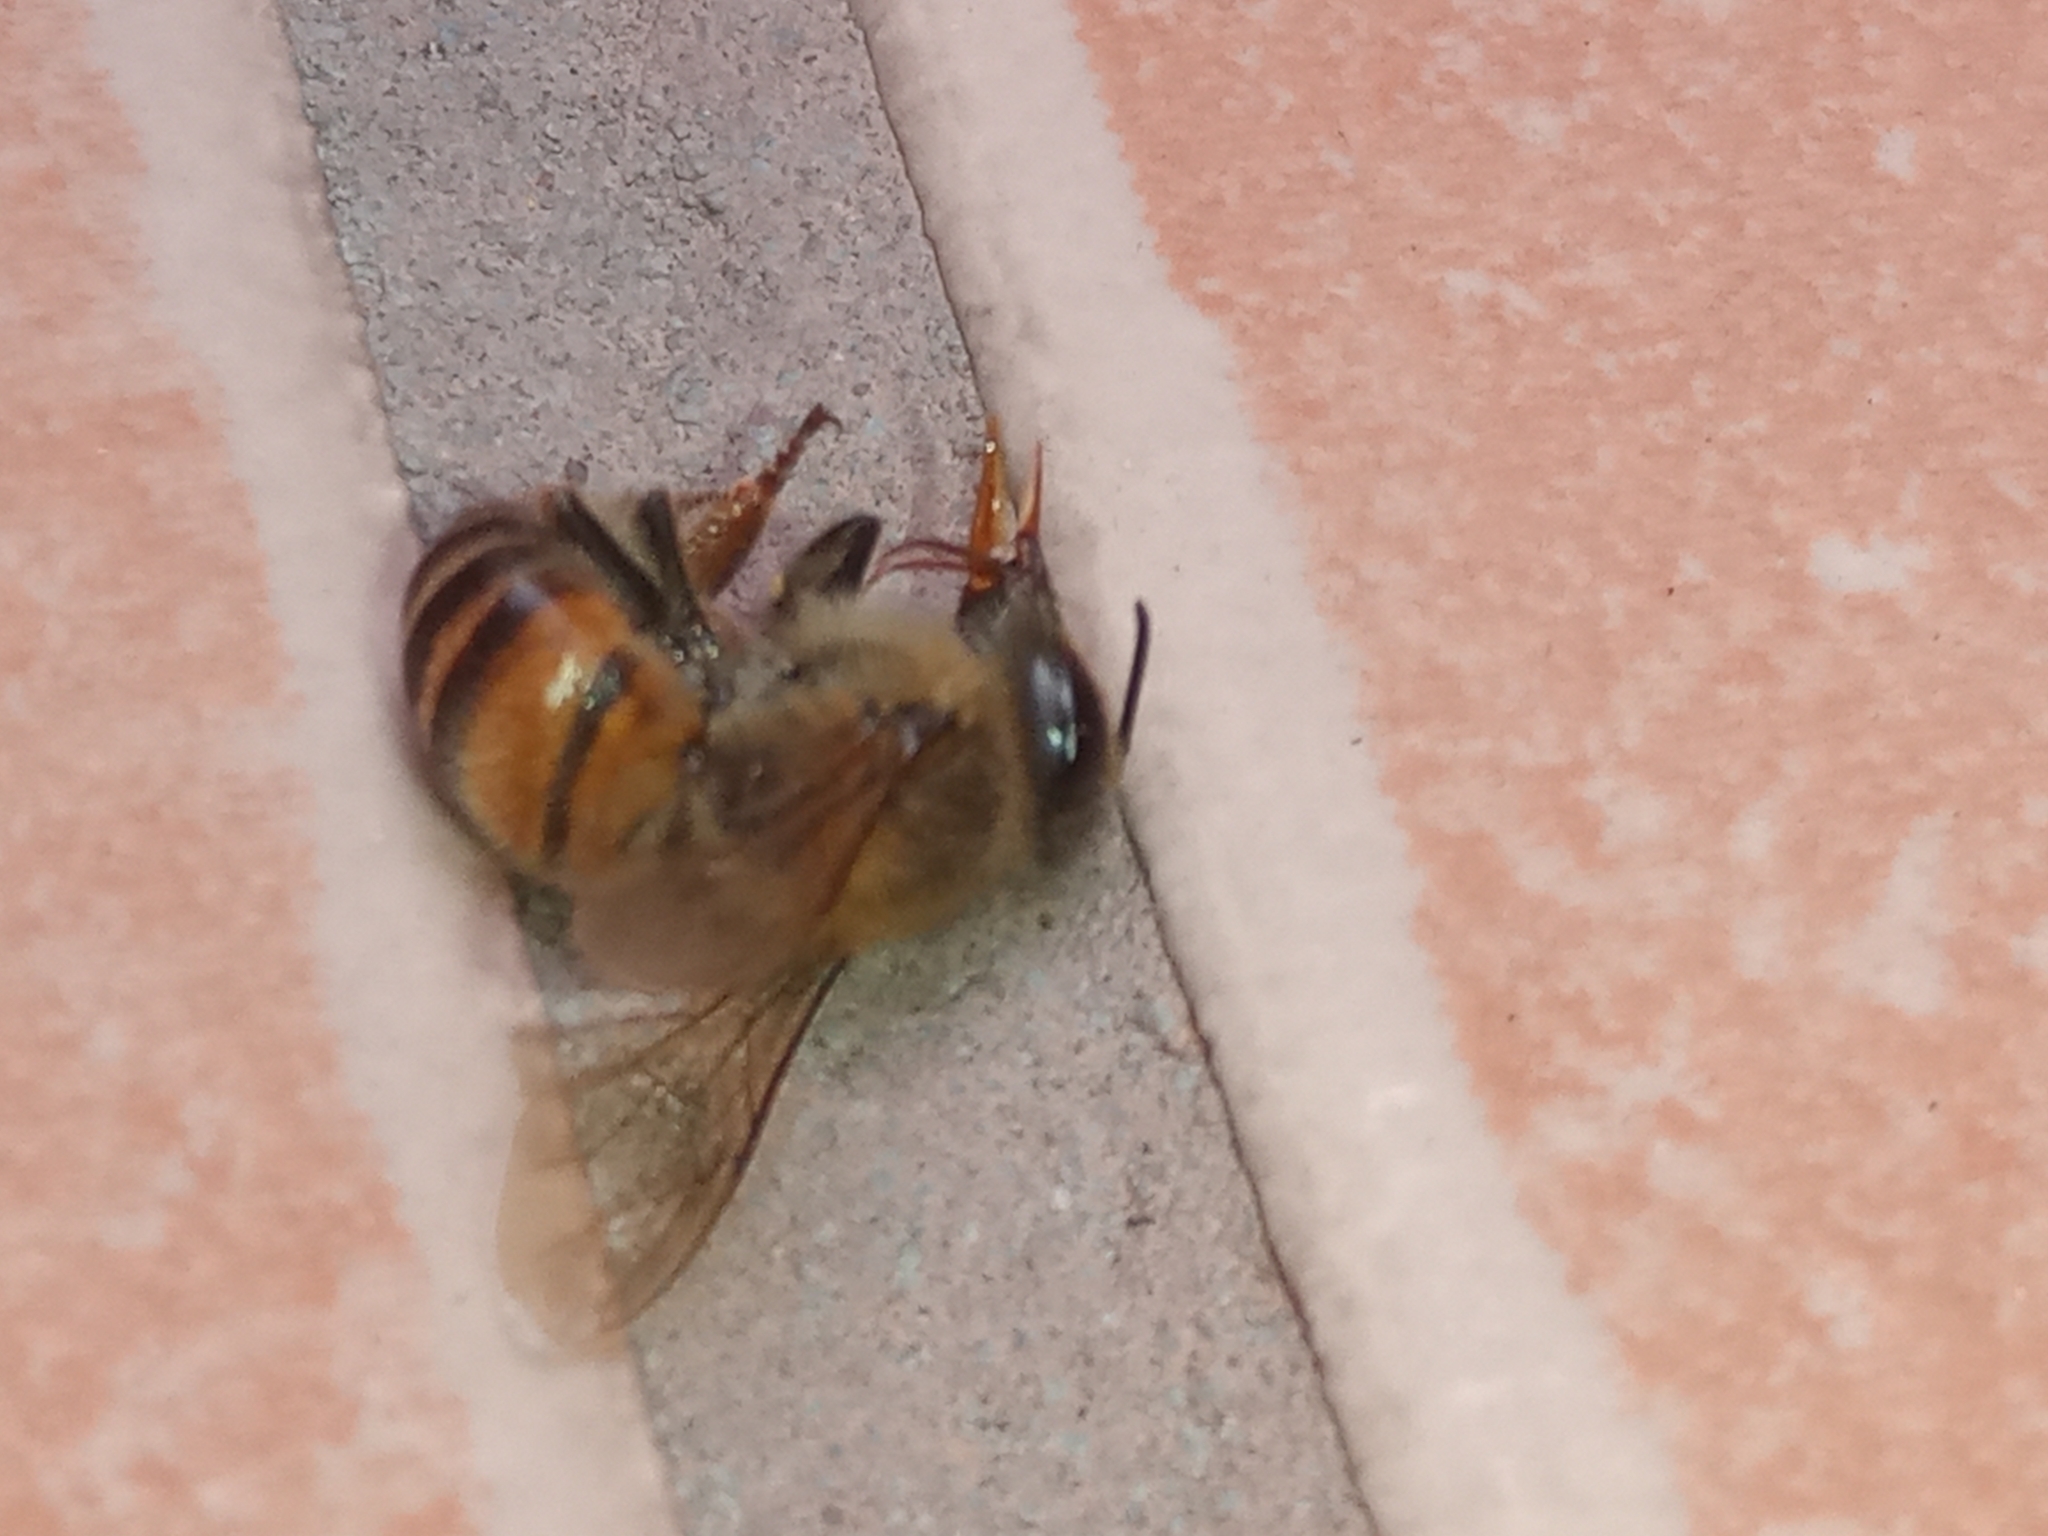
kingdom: Animalia
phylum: Arthropoda
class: Insecta
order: Hymenoptera
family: Apidae
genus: Apis
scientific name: Apis mellifera
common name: Honey bee
